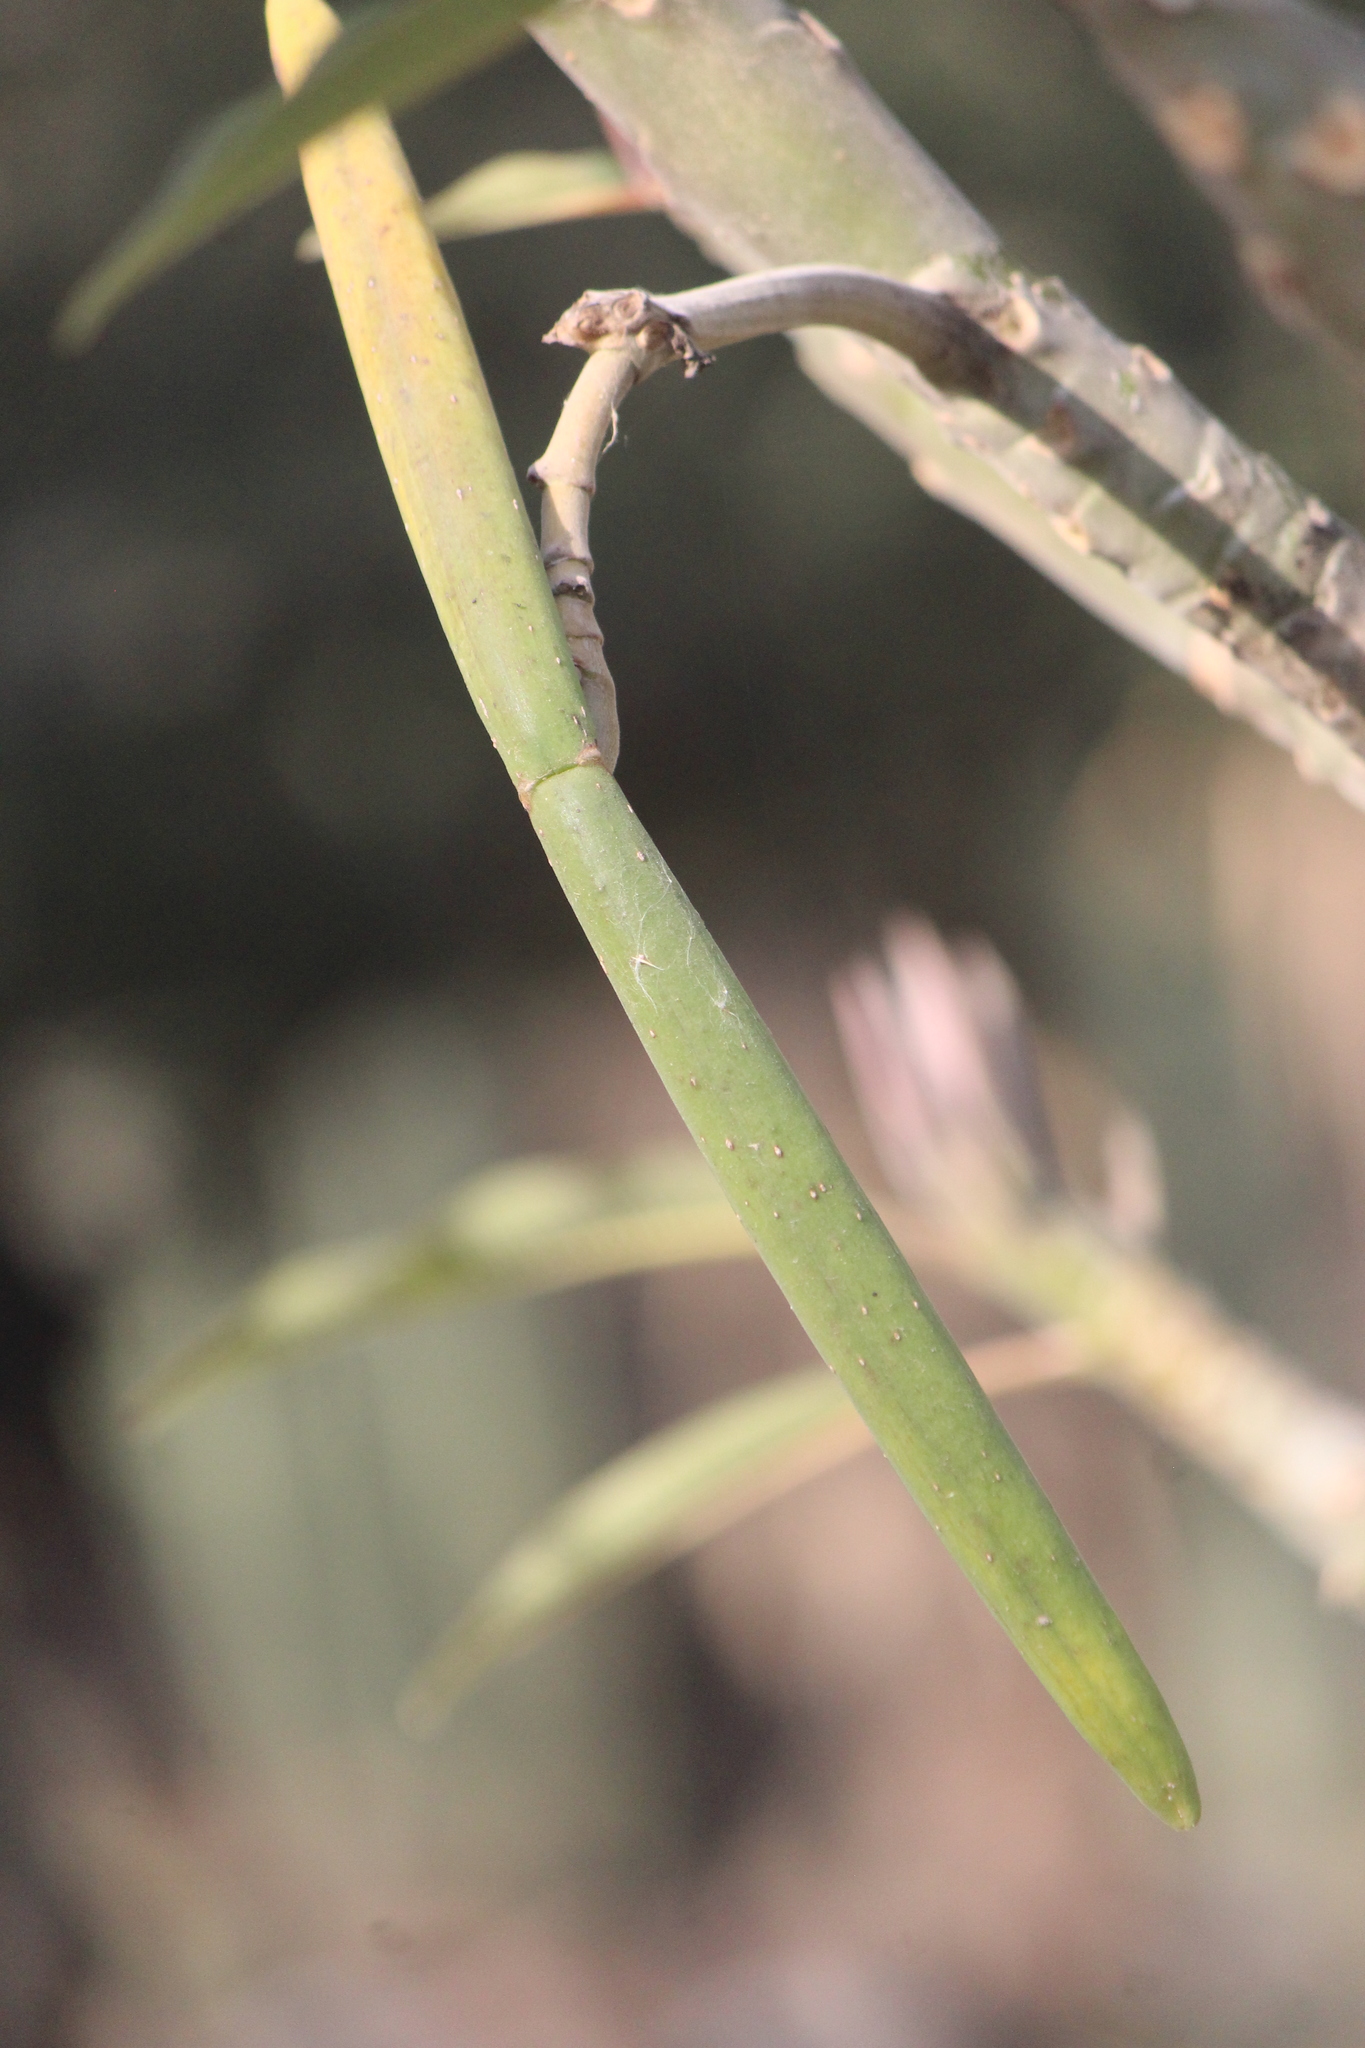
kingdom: Plantae
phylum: Tracheophyta
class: Magnoliopsida
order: Gentianales
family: Apocynaceae
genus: Plumeria
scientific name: Plumeria rubra
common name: Pagoda-tree
